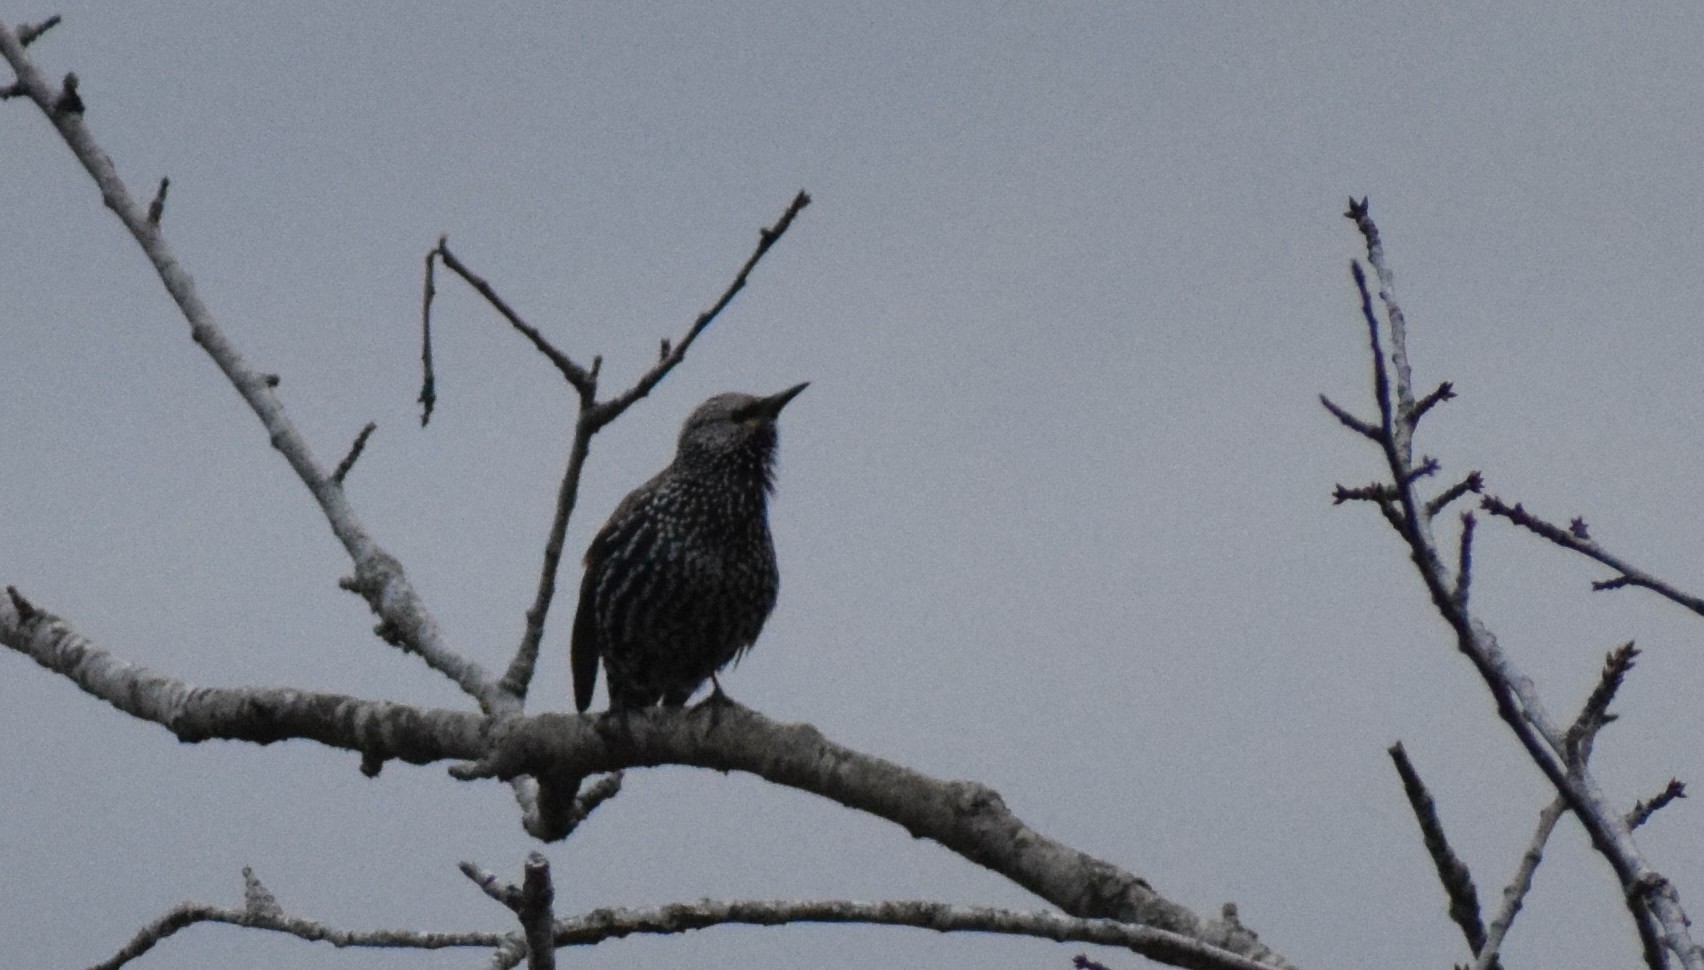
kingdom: Animalia
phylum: Chordata
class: Aves
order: Passeriformes
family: Sturnidae
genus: Sturnus
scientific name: Sturnus vulgaris
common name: Common starling
